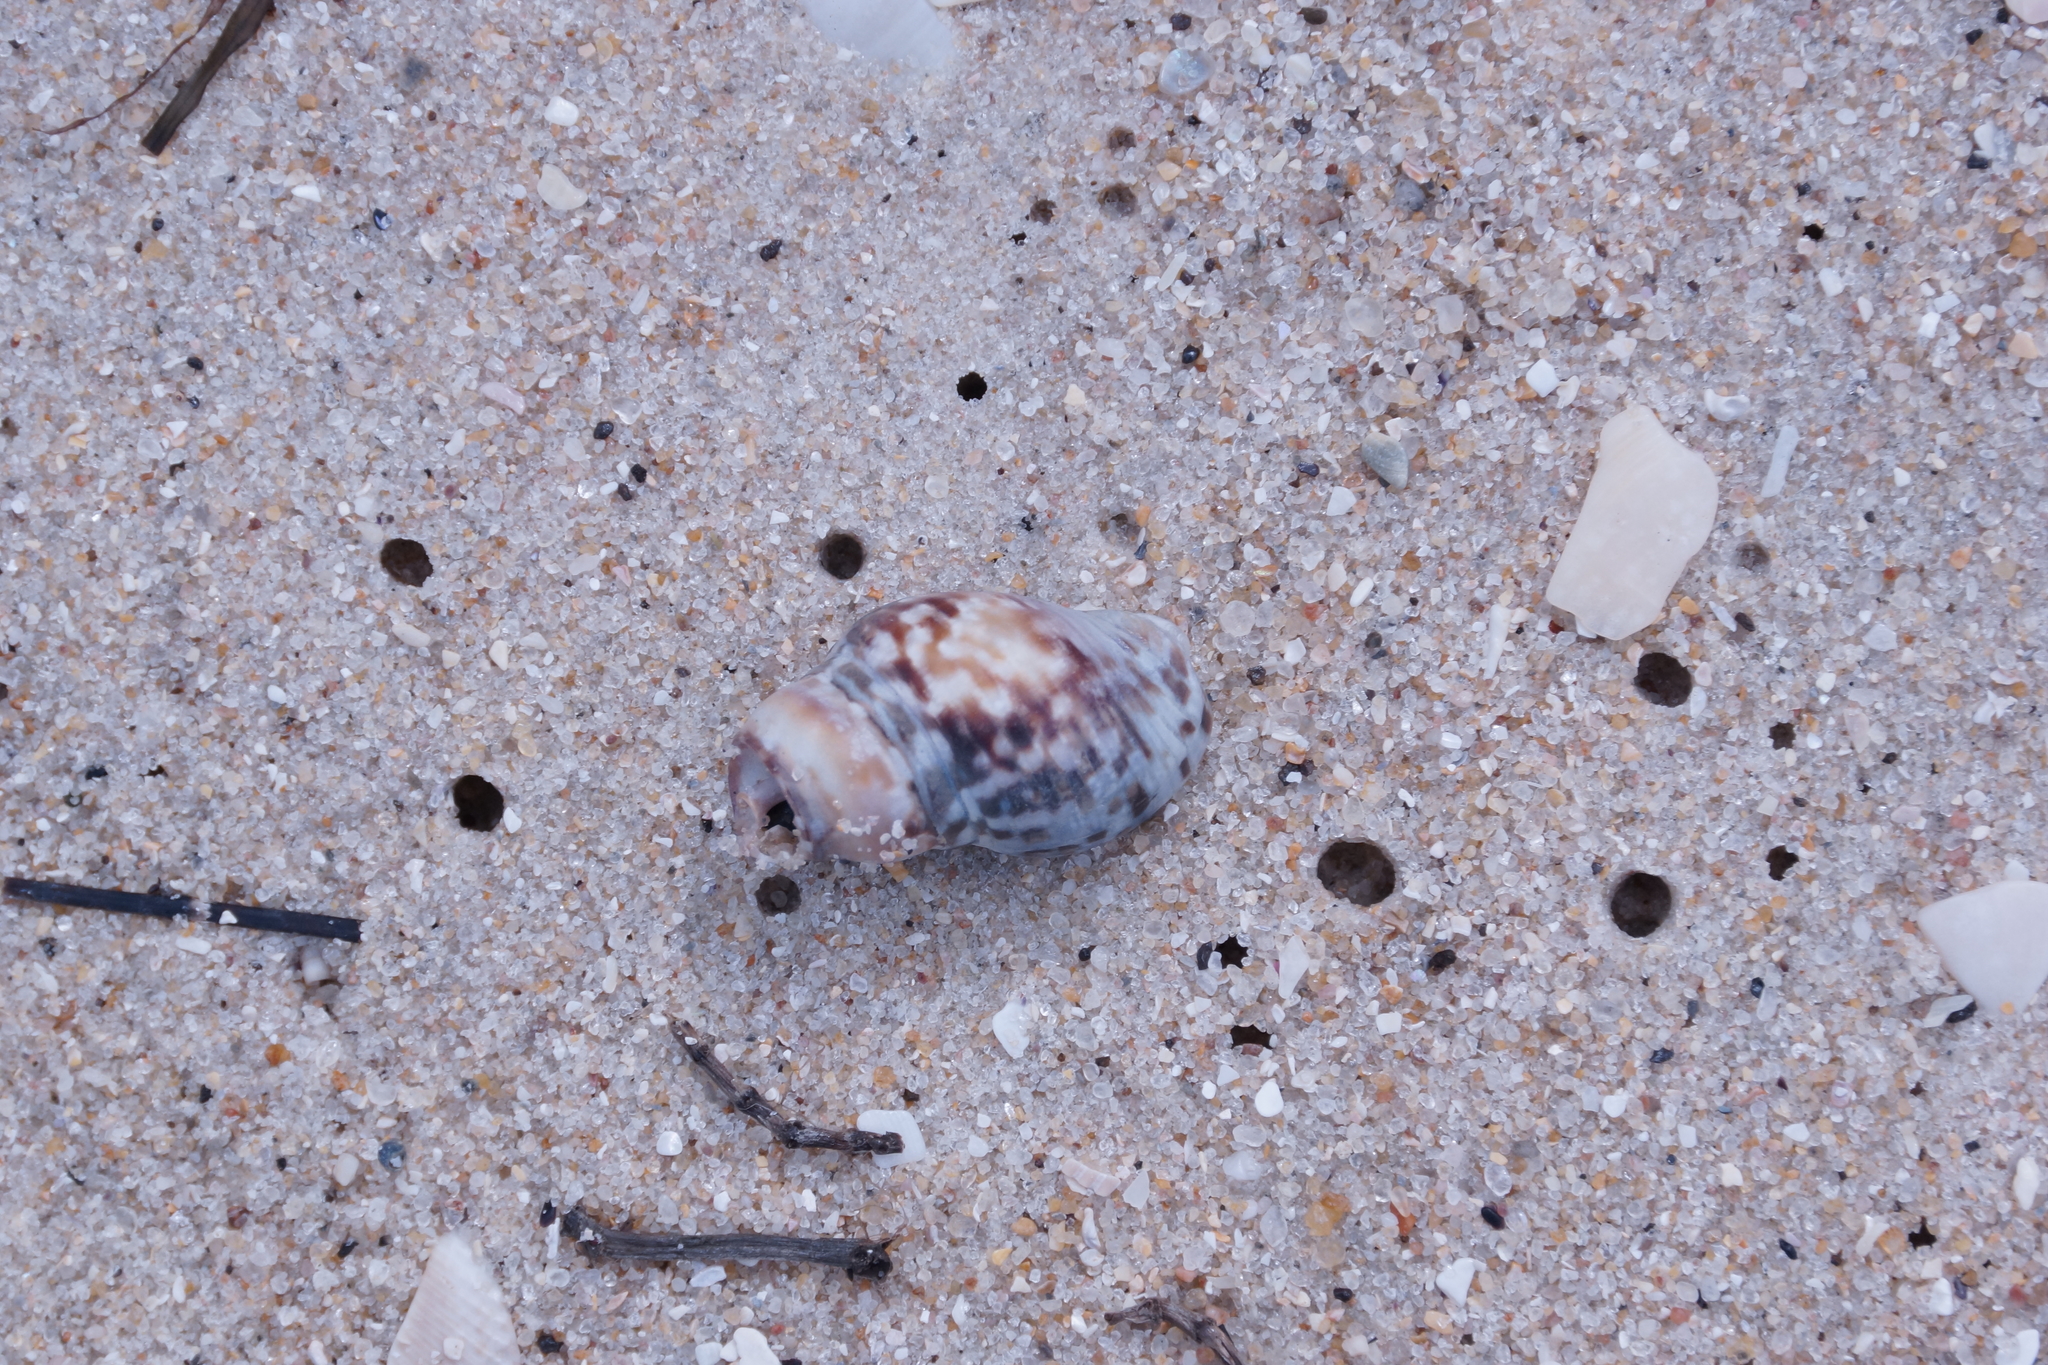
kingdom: Animalia
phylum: Mollusca
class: Gastropoda
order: Neogastropoda
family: Cominellidae
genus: Cominella
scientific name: Cominella lineolata
